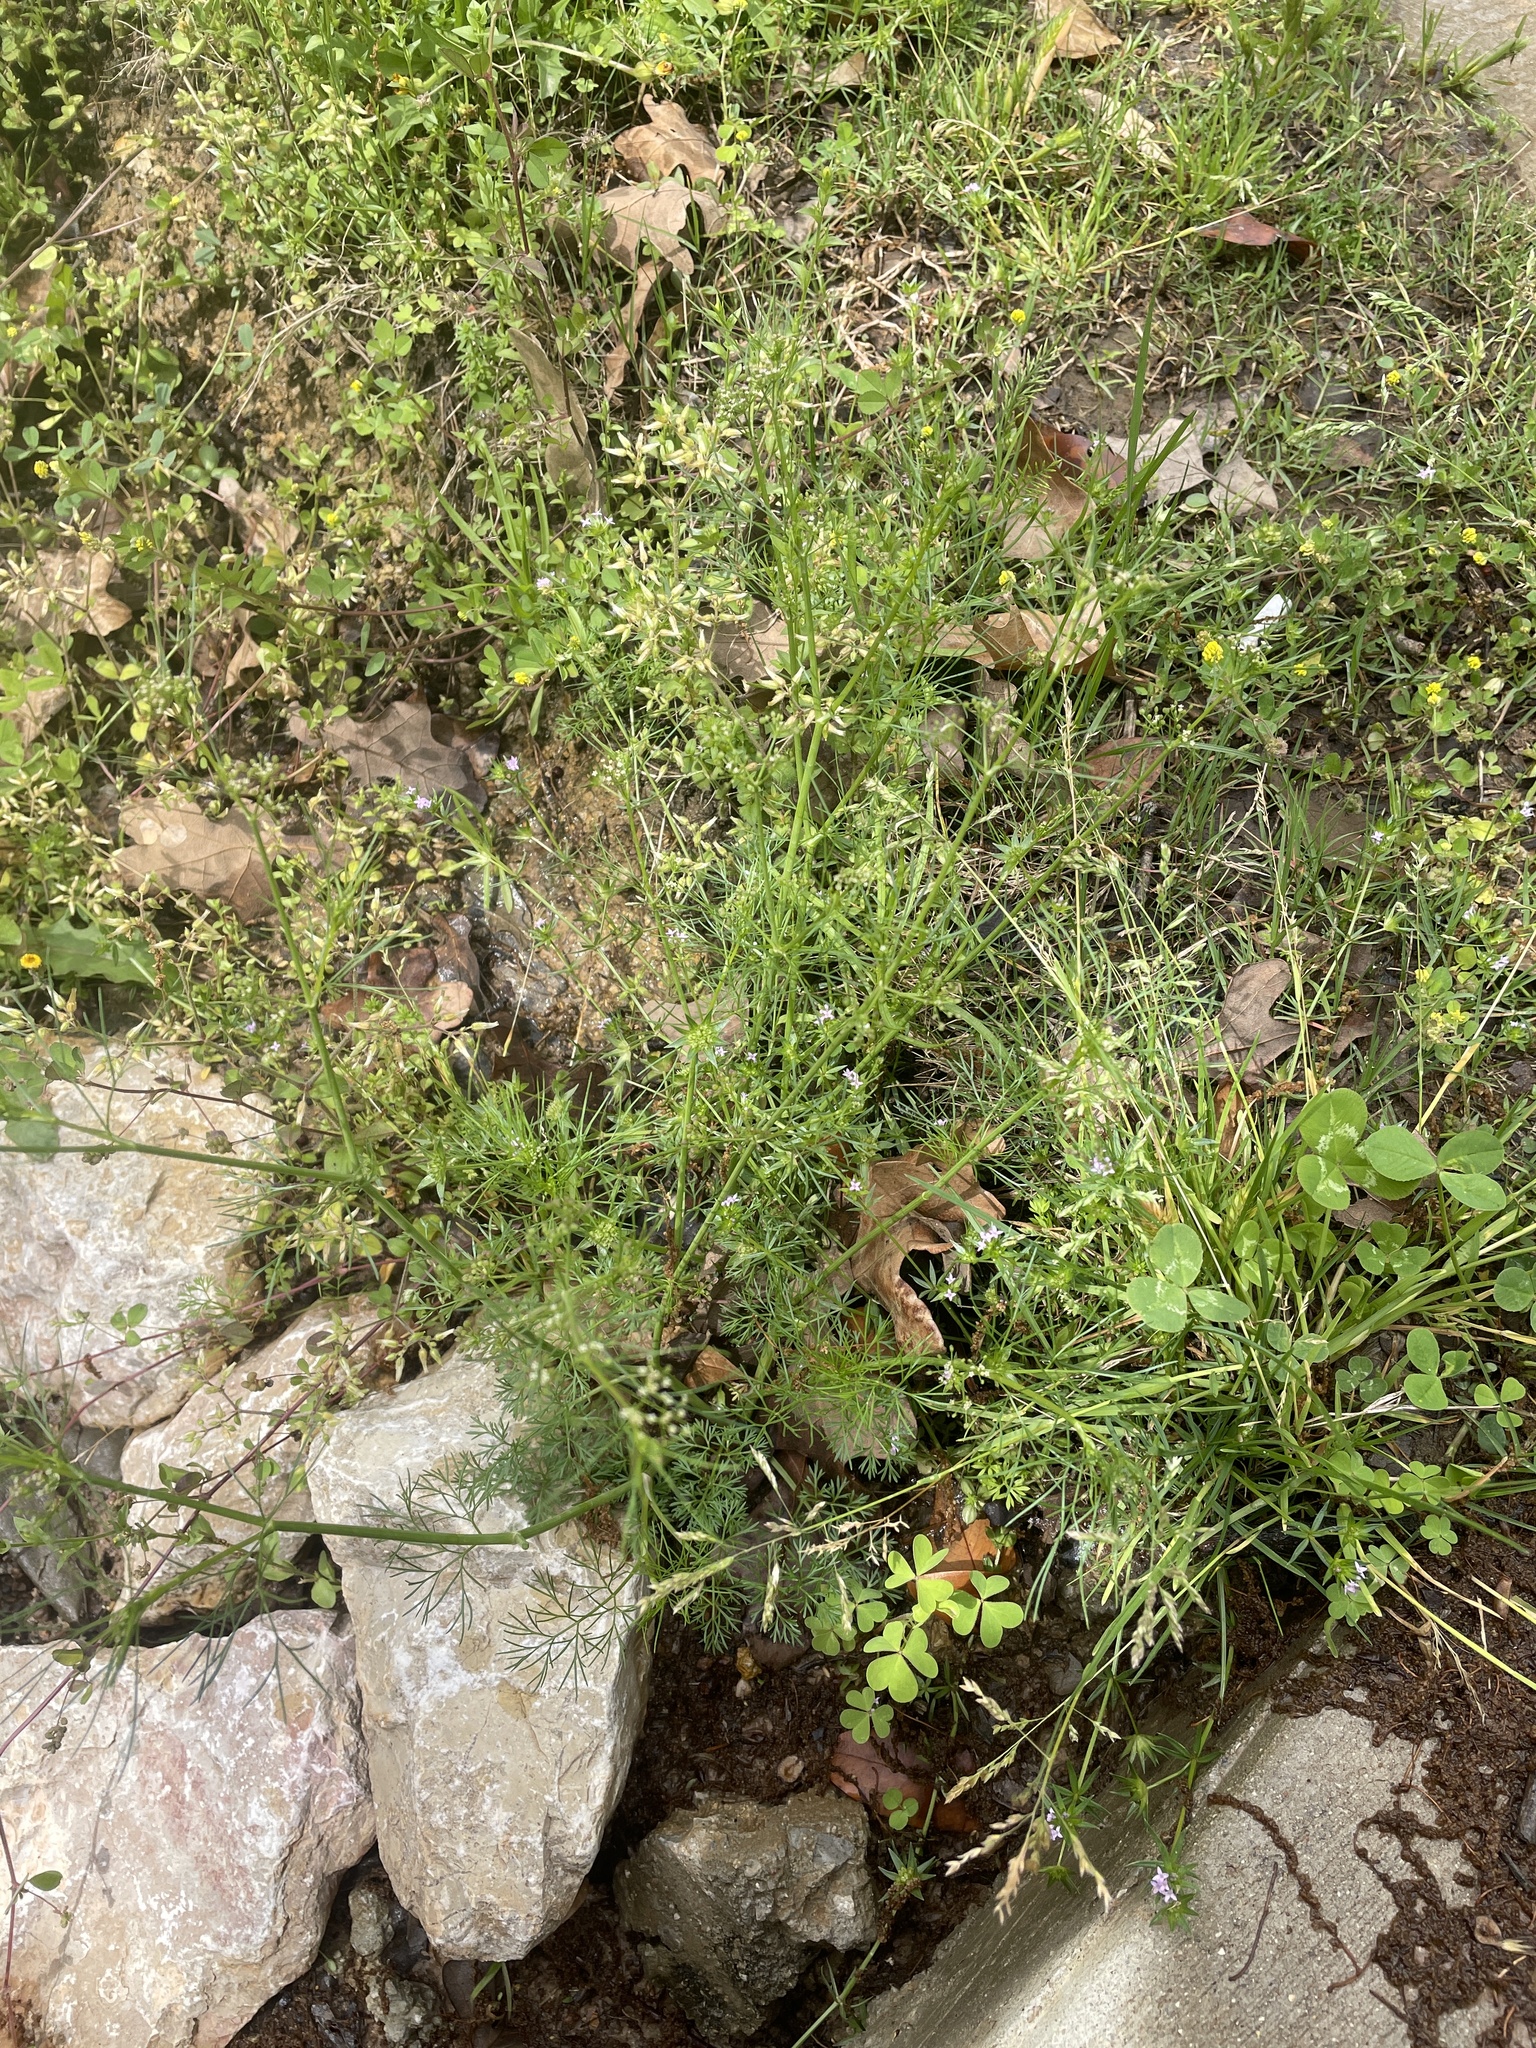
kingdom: Plantae
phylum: Tracheophyta
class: Magnoliopsida
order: Apiales
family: Apiaceae
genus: Cyclospermum
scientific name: Cyclospermum leptophyllum
